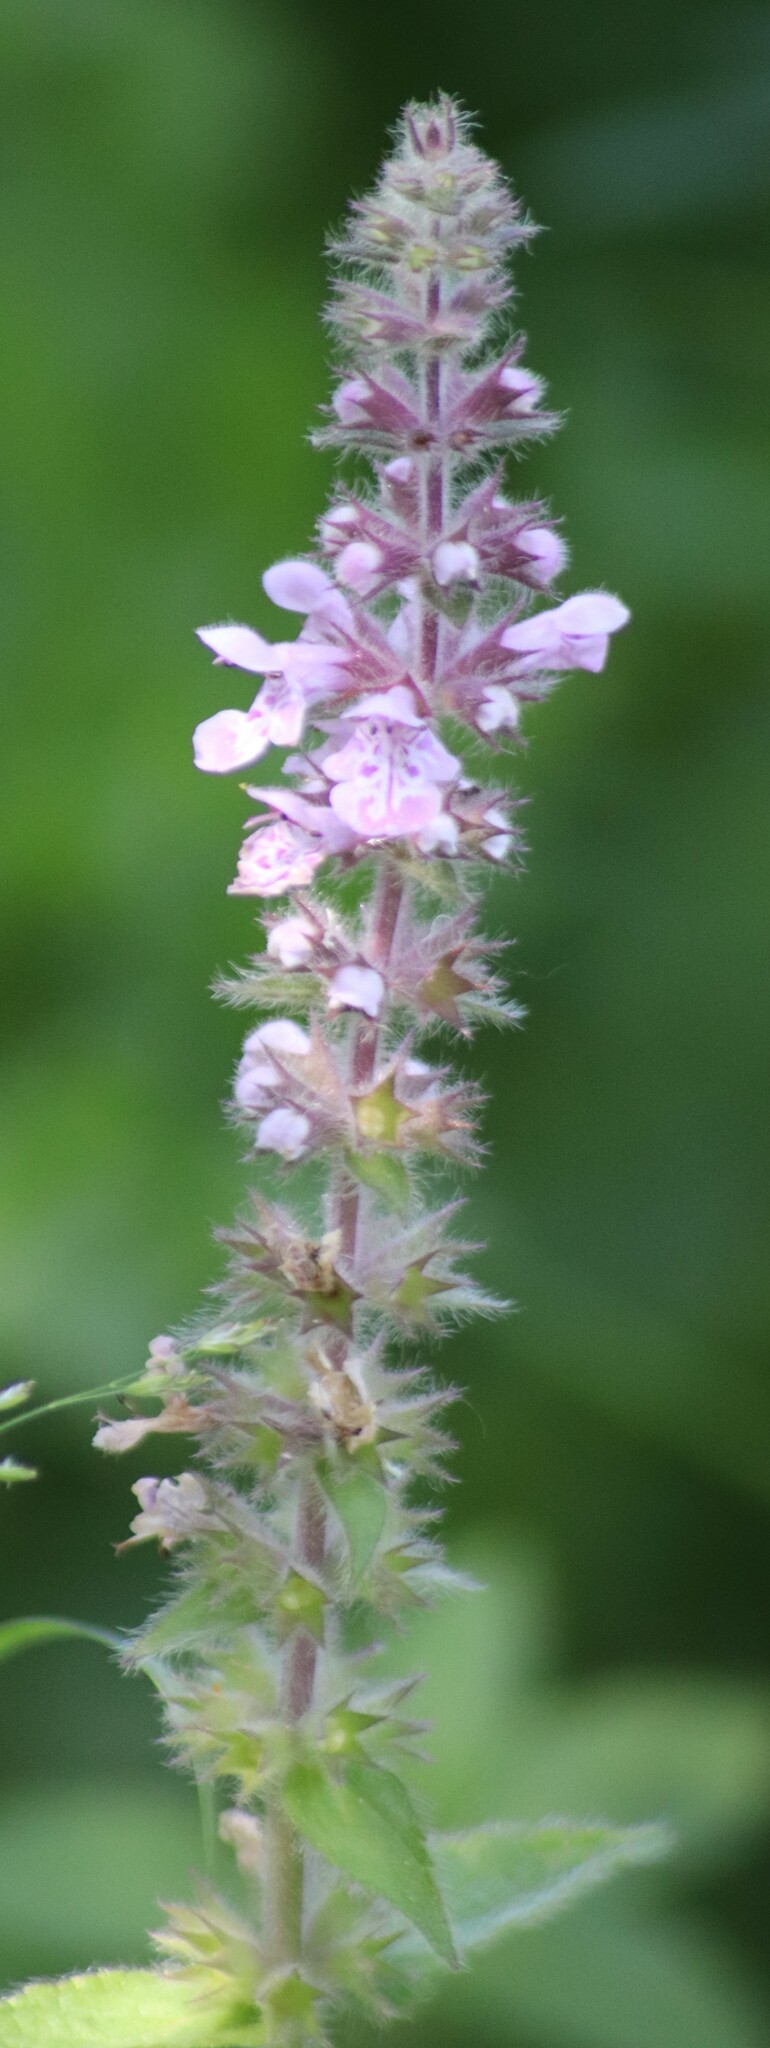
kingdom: Plantae
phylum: Tracheophyta
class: Magnoliopsida
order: Lamiales
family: Lamiaceae
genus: Stachys
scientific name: Stachys pilosa
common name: Hairy hedge-nettle
